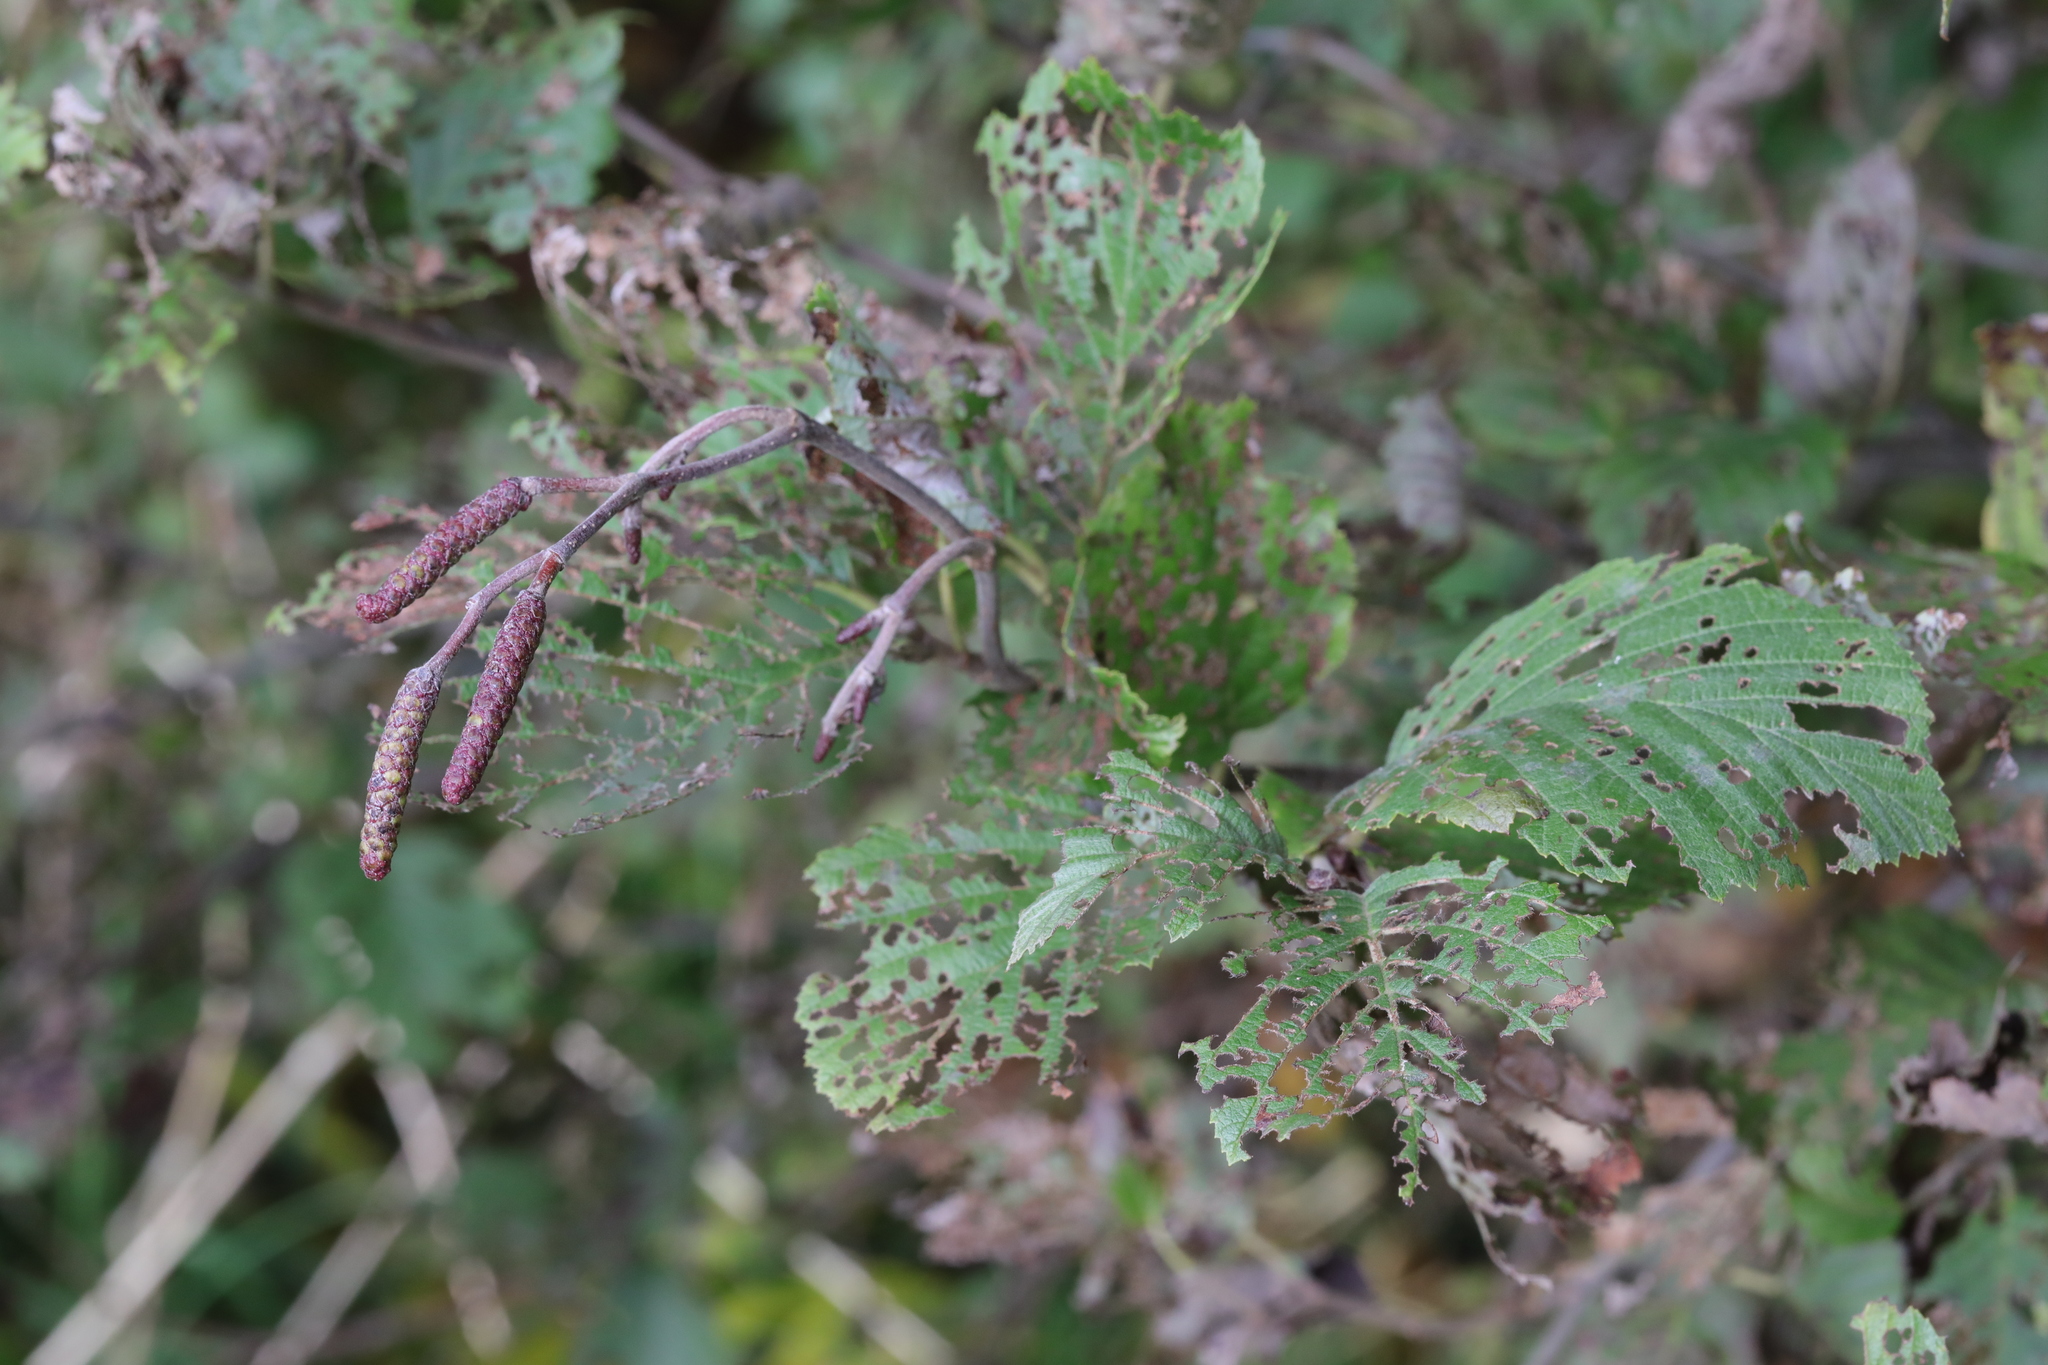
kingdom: Animalia
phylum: Arthropoda
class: Insecta
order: Coleoptera
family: Chrysomelidae
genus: Agelastica
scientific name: Agelastica alni
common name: Alder leaf beetle
